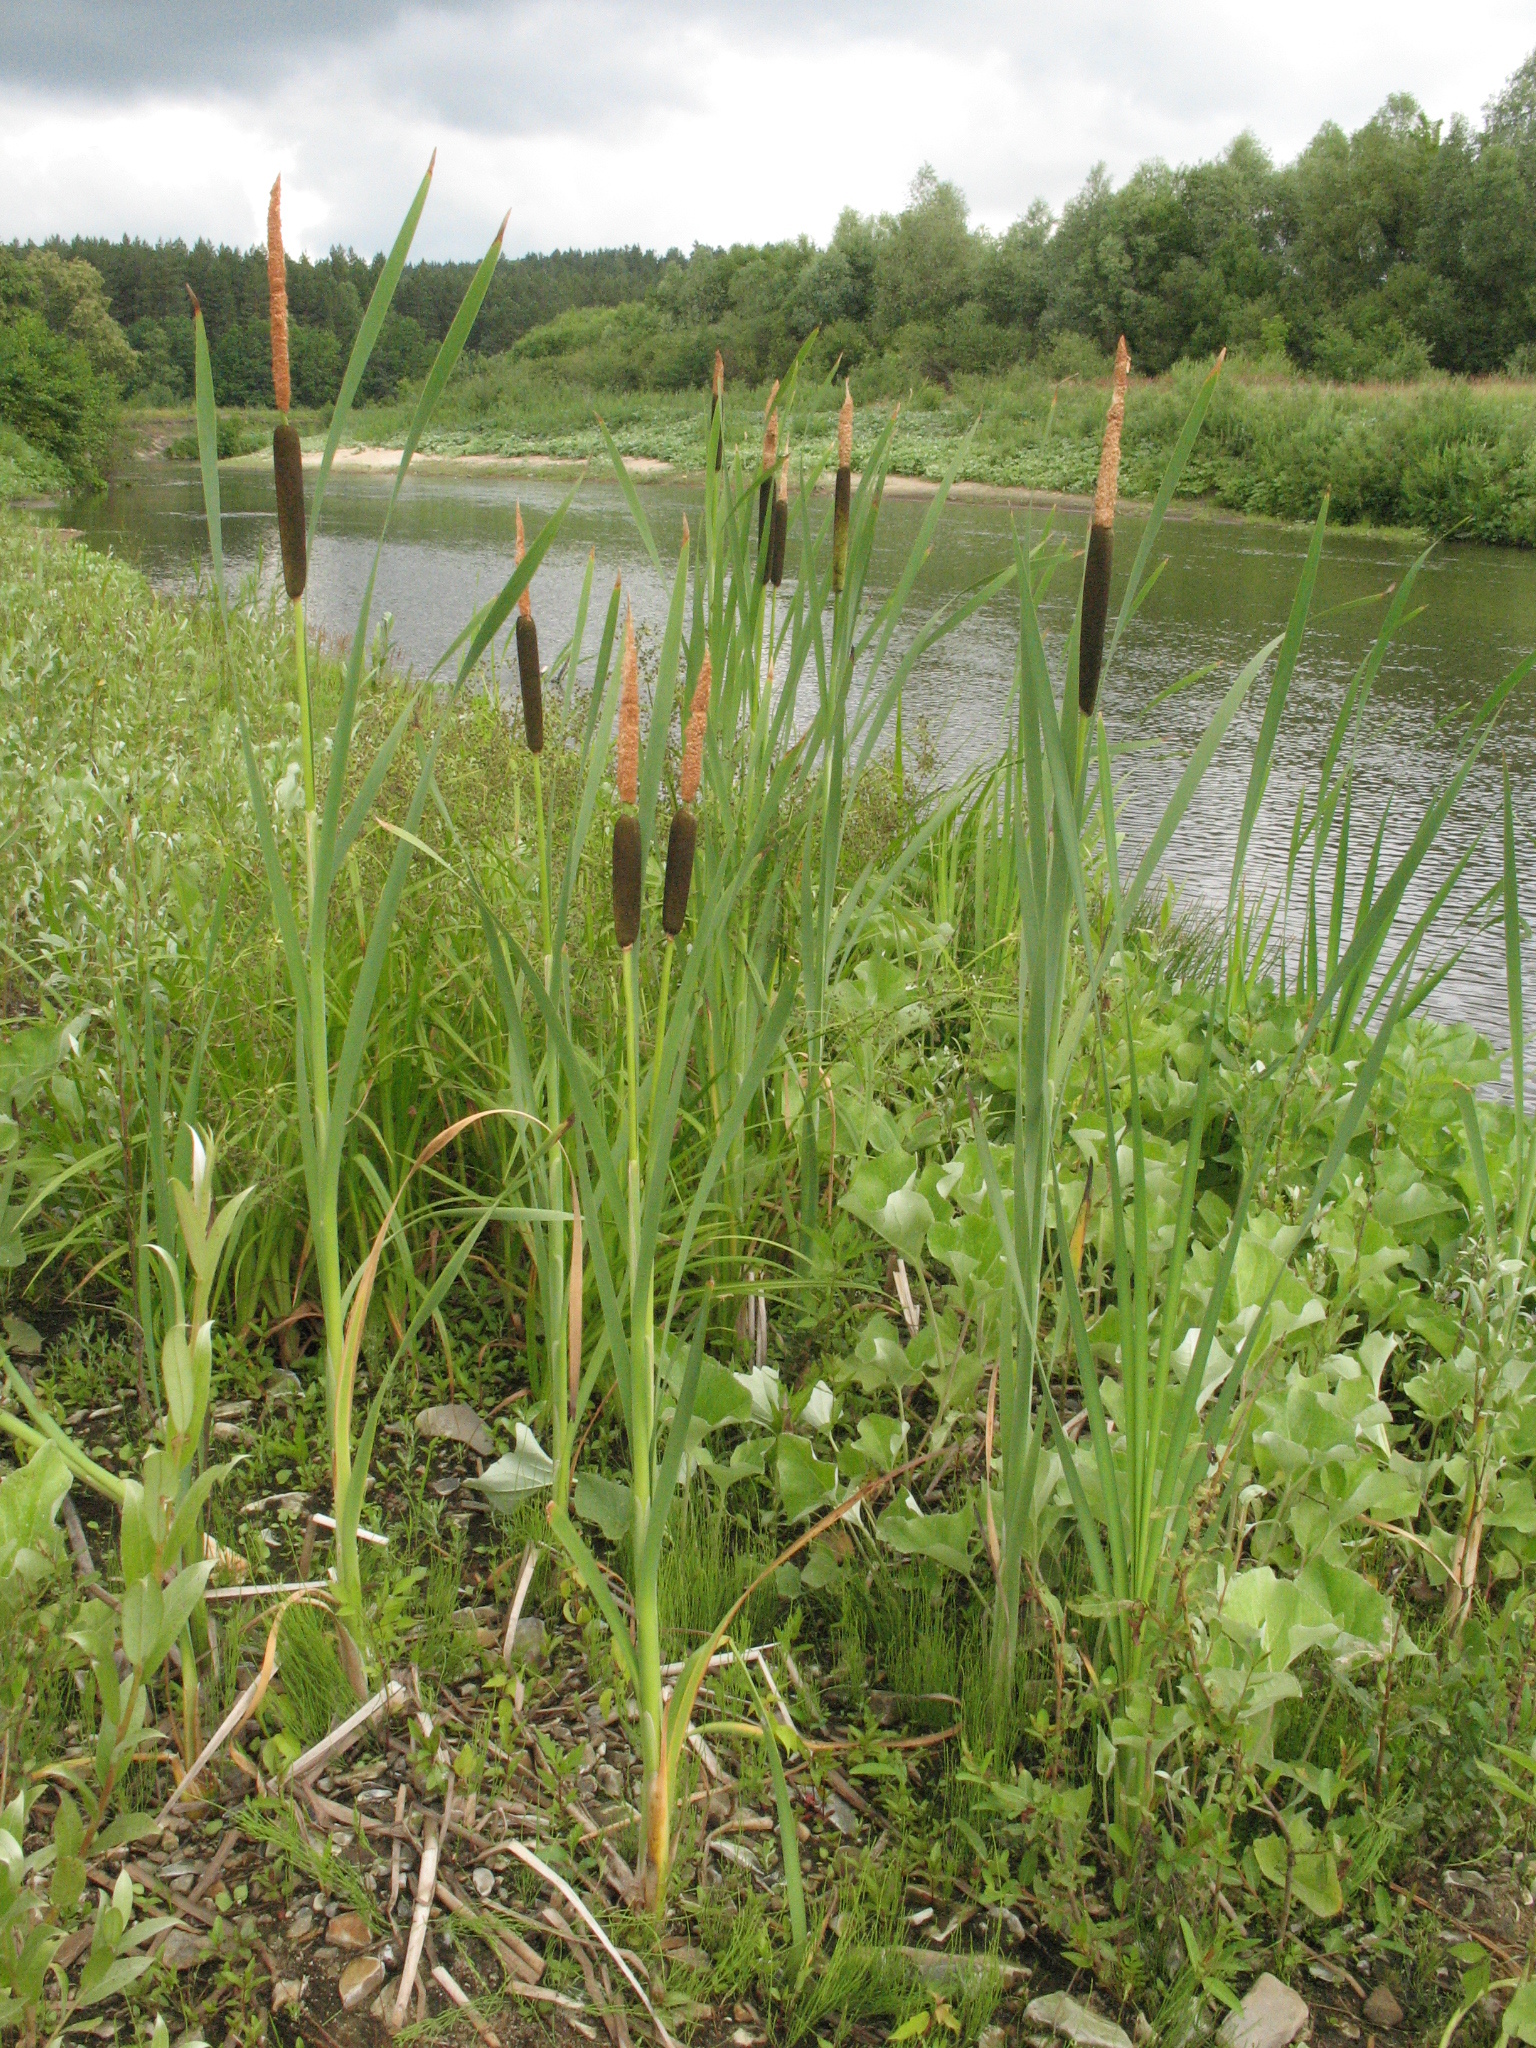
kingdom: Plantae
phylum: Tracheophyta
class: Liliopsida
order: Poales
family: Typhaceae
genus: Typha
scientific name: Typha latifolia
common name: Broadleaf cattail
